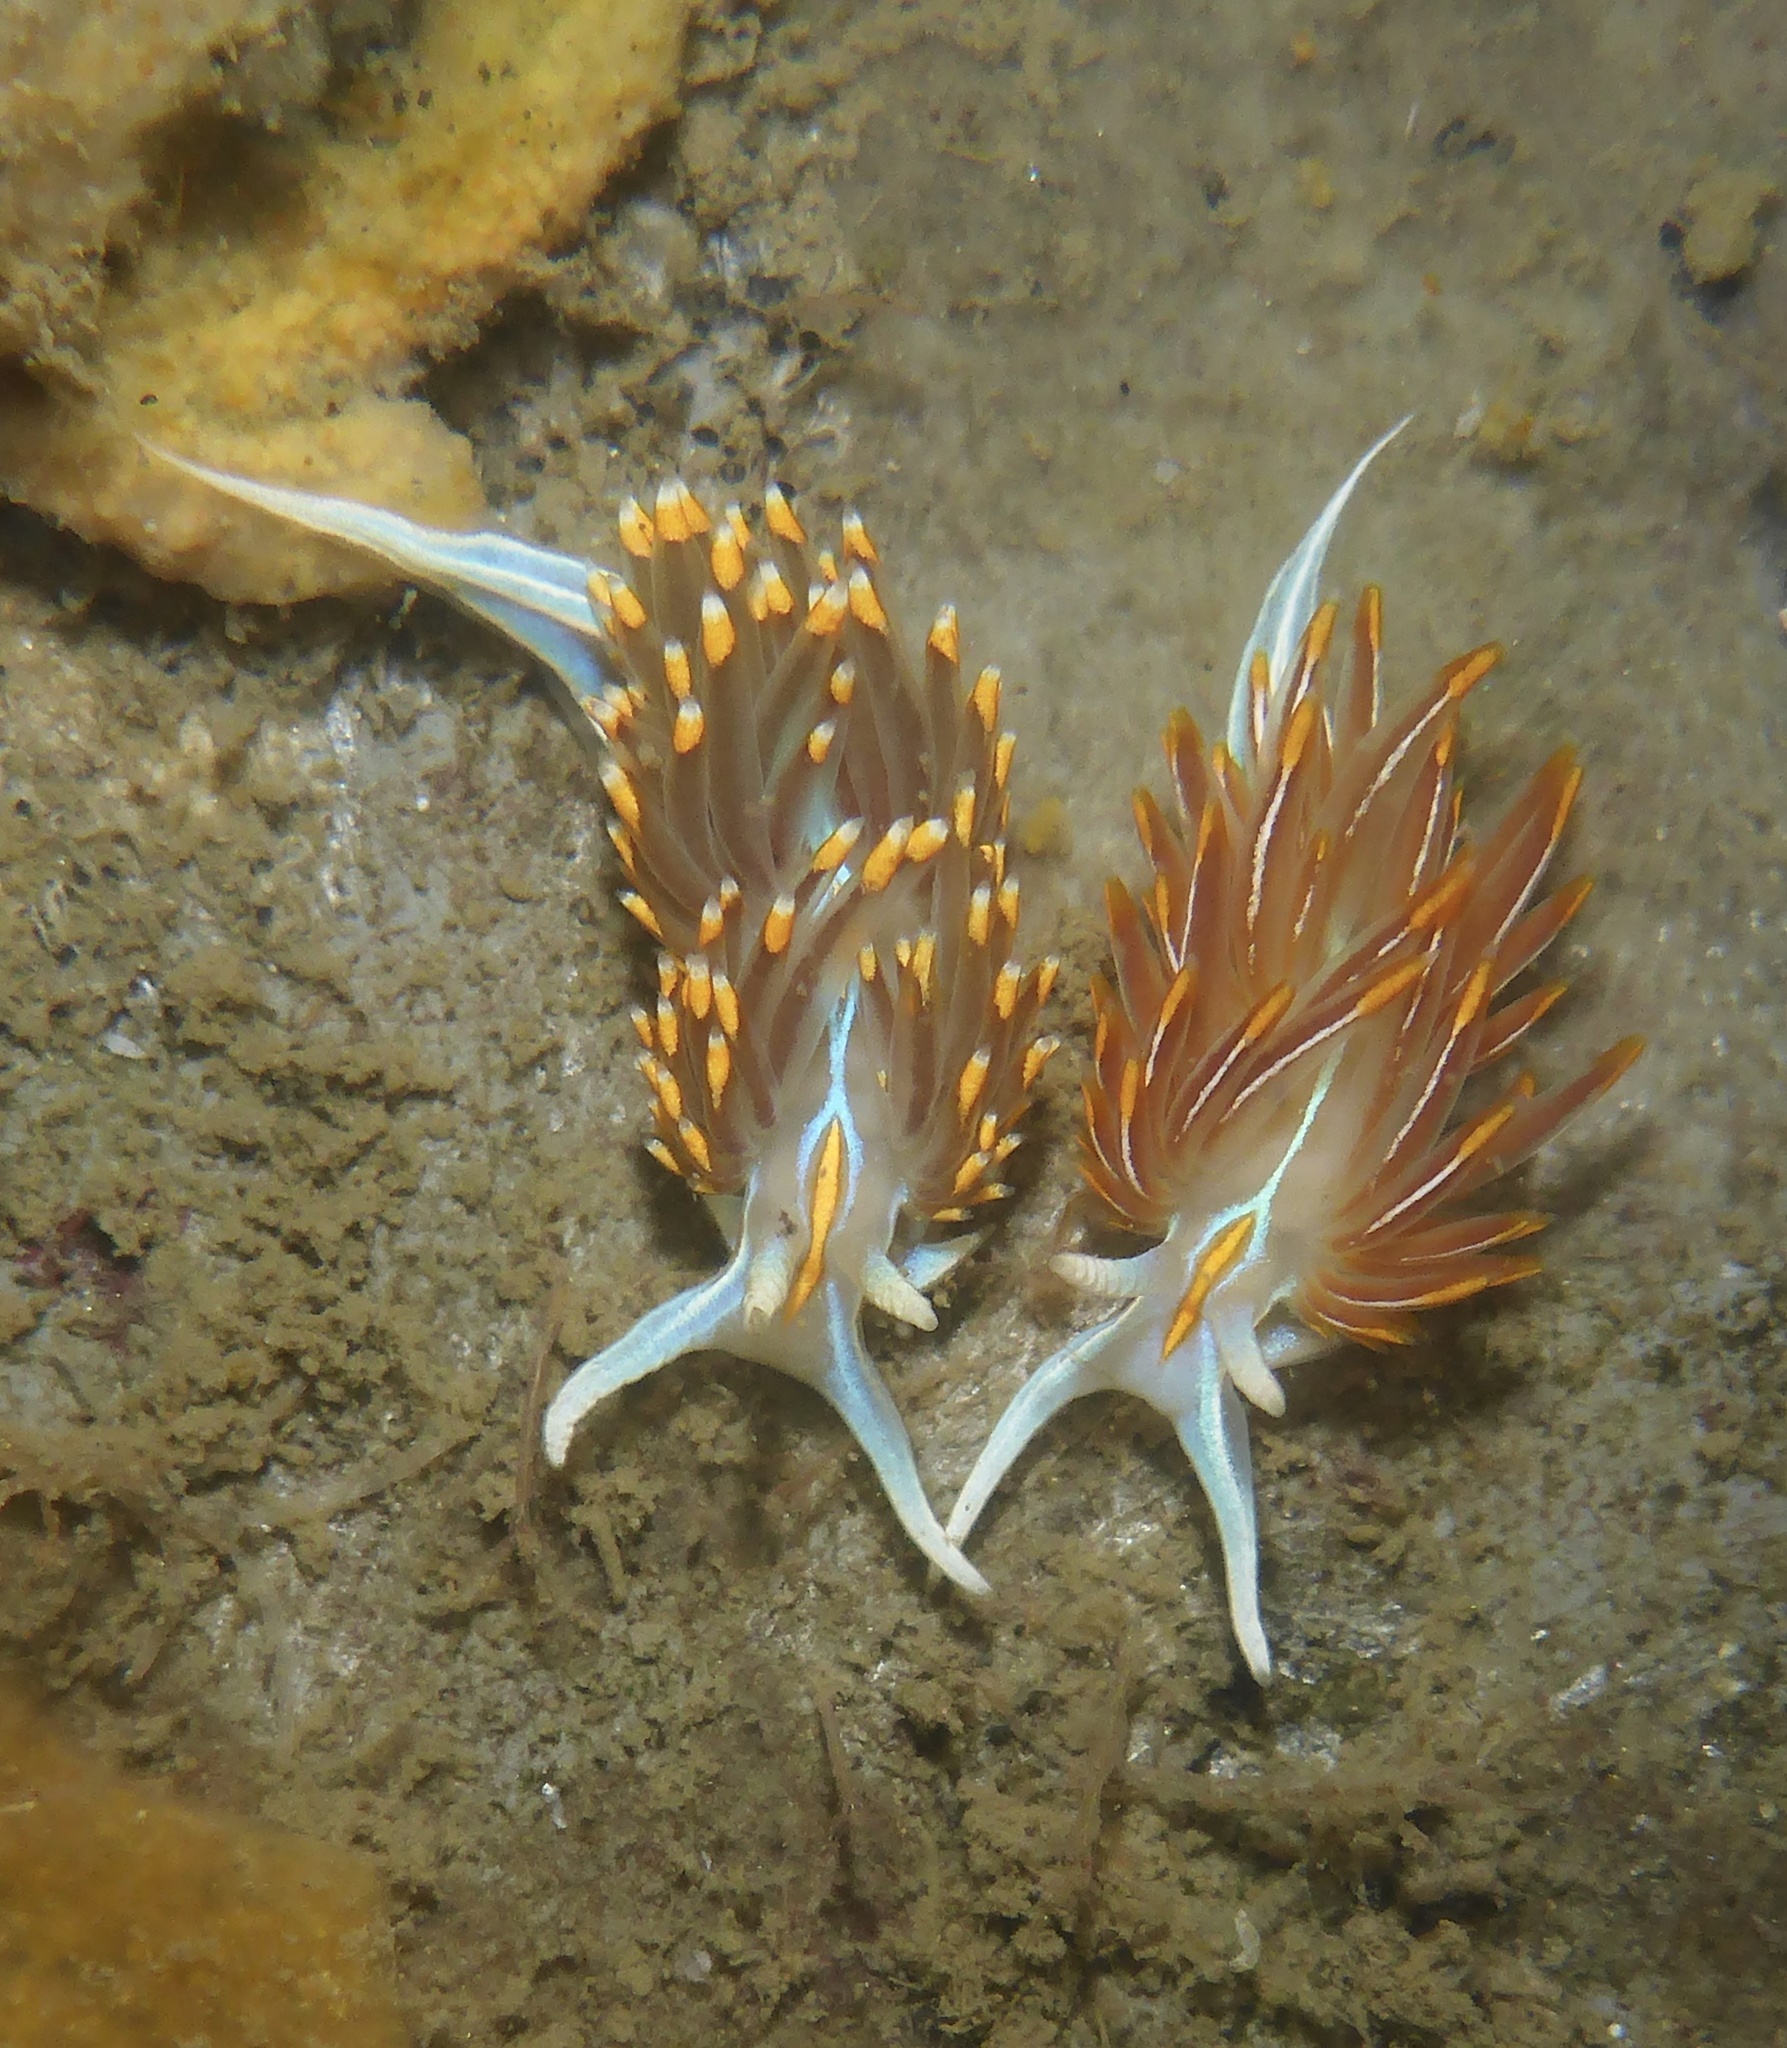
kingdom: Animalia
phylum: Mollusca
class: Gastropoda
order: Nudibranchia
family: Myrrhinidae
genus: Hermissenda
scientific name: Hermissenda opalescens
